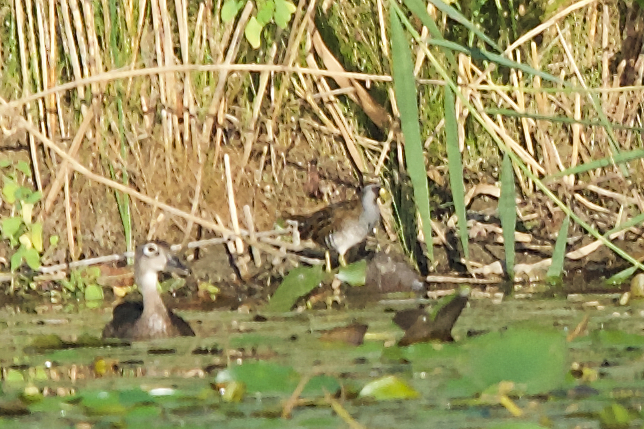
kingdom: Animalia
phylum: Chordata
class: Aves
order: Gruiformes
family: Rallidae
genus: Porzana
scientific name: Porzana carolina
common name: Sora
